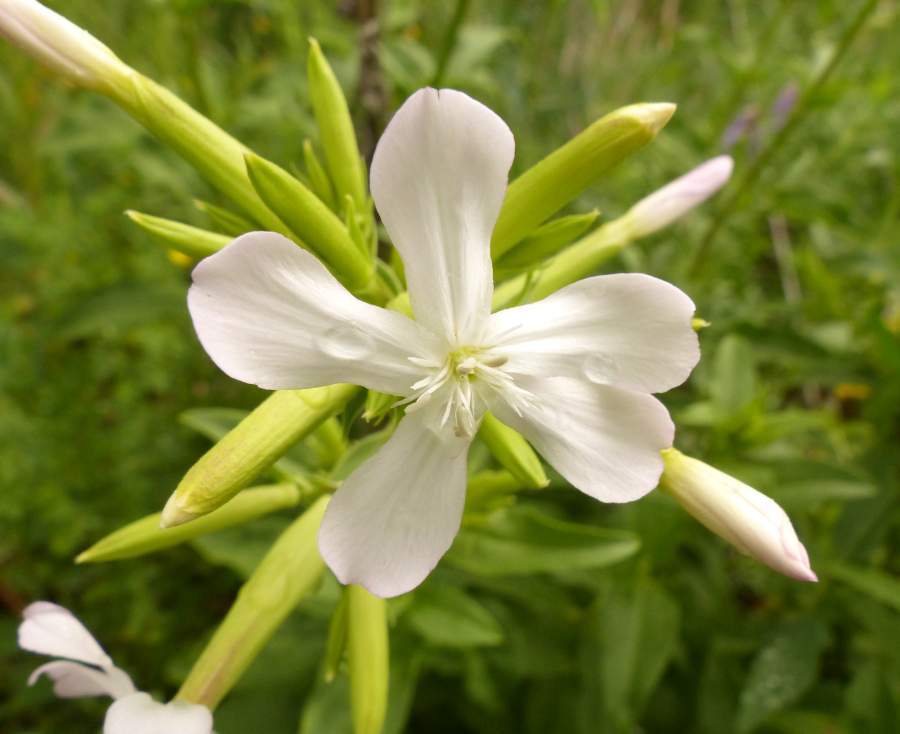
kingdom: Plantae
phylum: Tracheophyta
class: Magnoliopsida
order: Caryophyllales
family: Caryophyllaceae
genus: Saponaria
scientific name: Saponaria officinalis
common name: Soapwort
